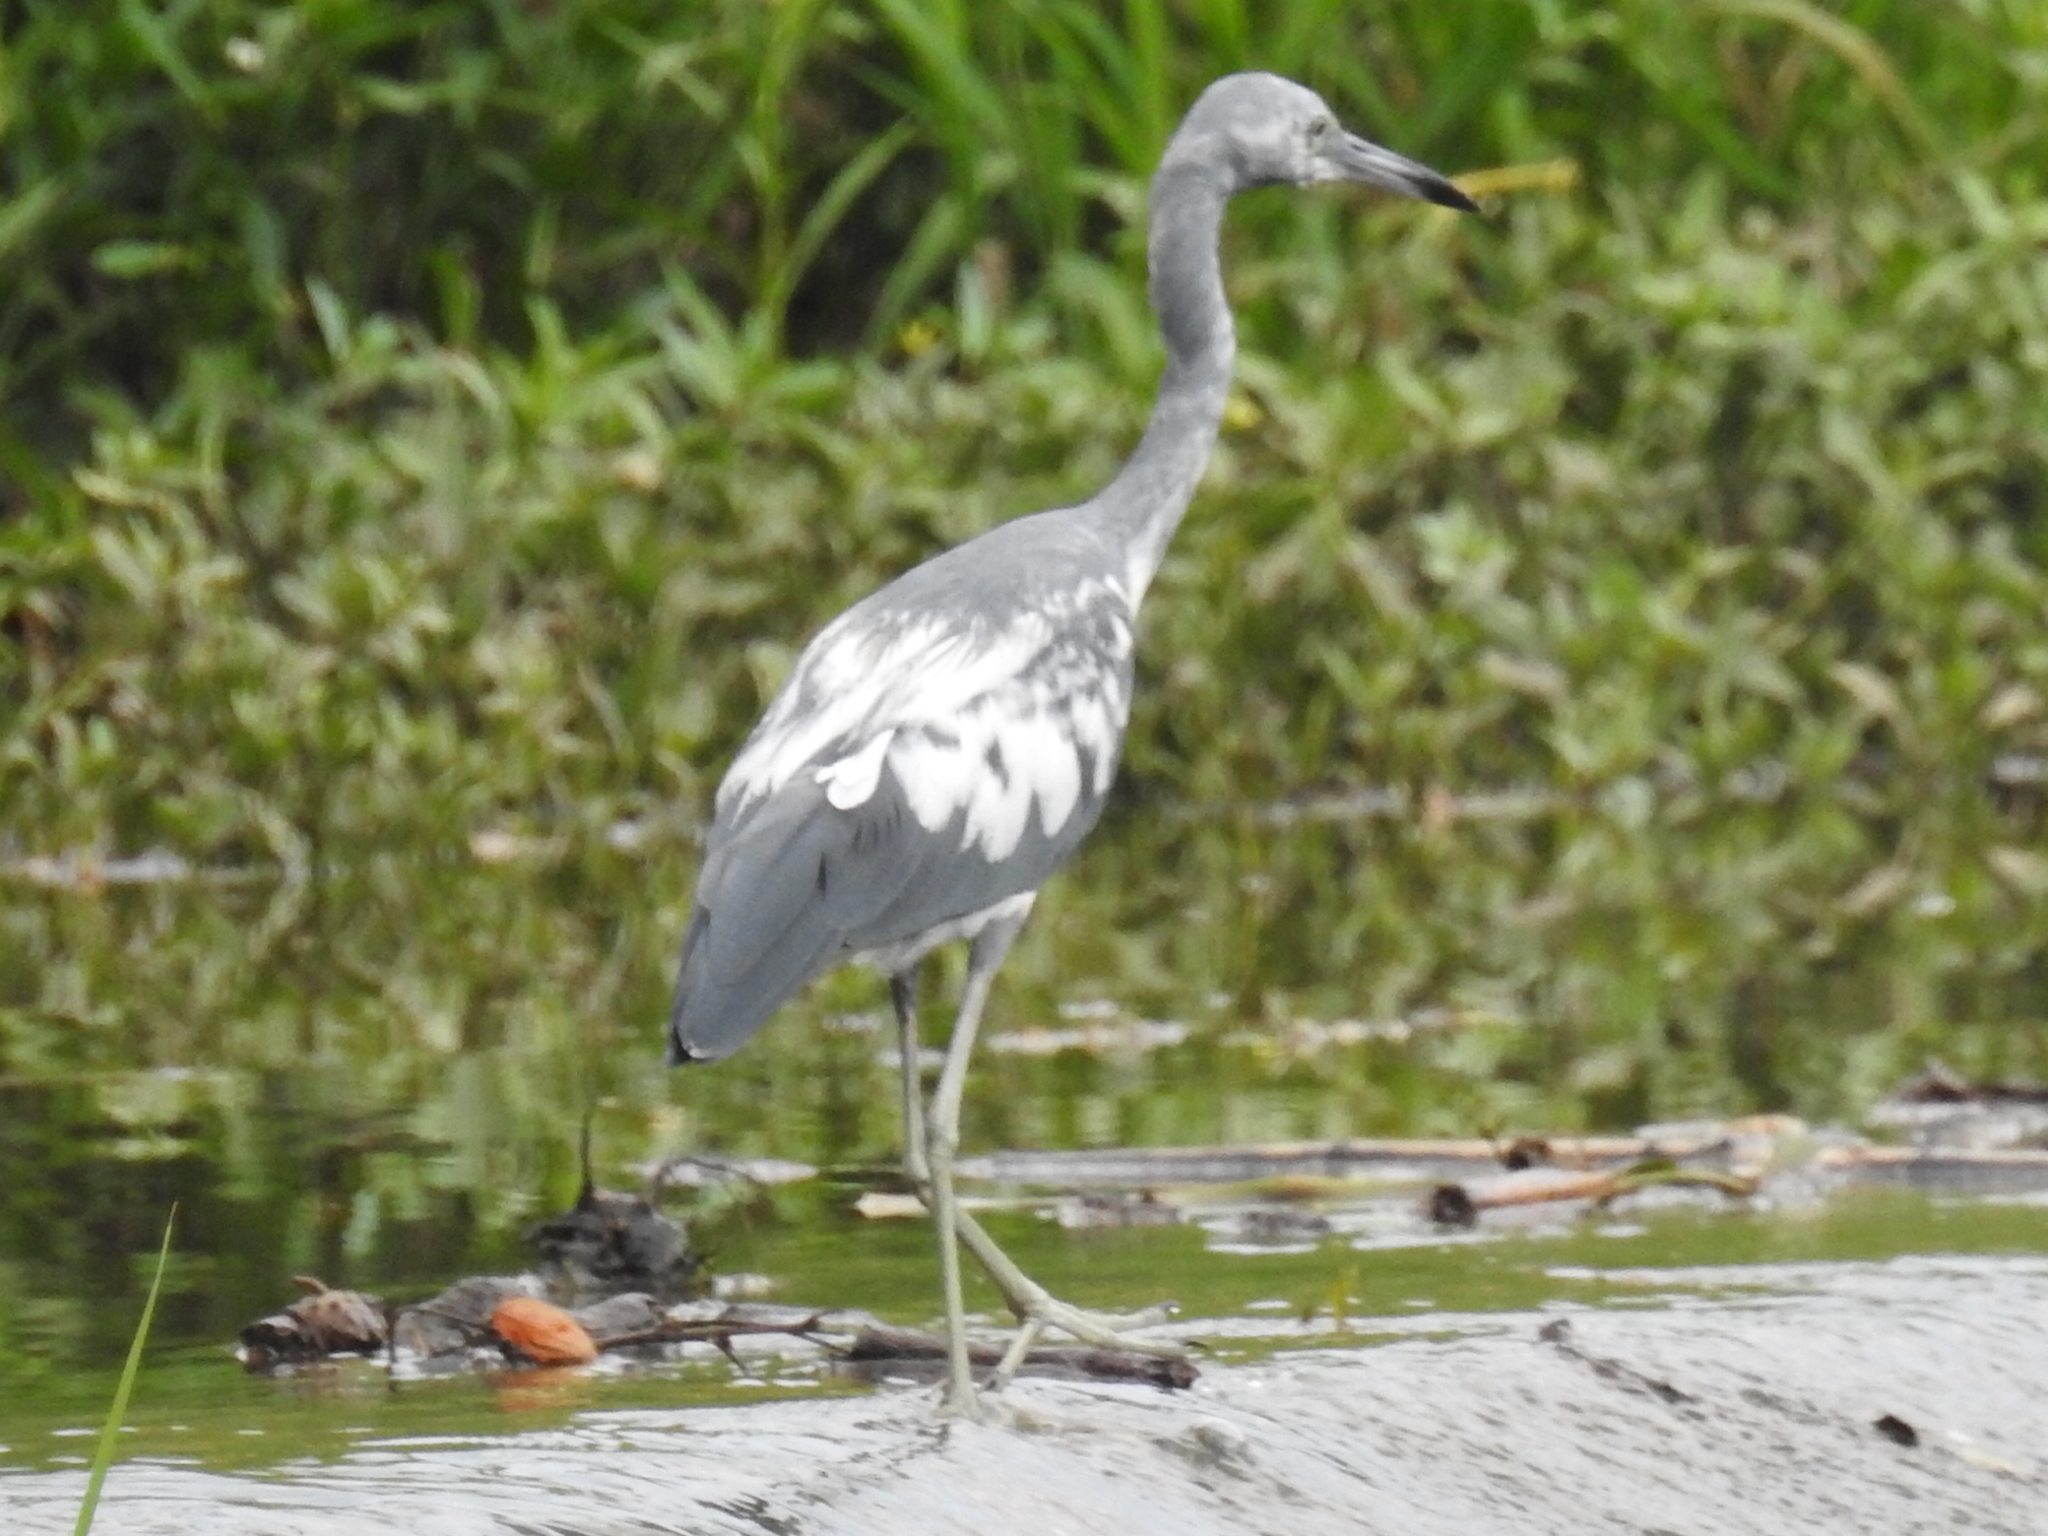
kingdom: Animalia
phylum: Chordata
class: Aves
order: Pelecaniformes
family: Ardeidae
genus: Egretta
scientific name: Egretta caerulea
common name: Little blue heron
